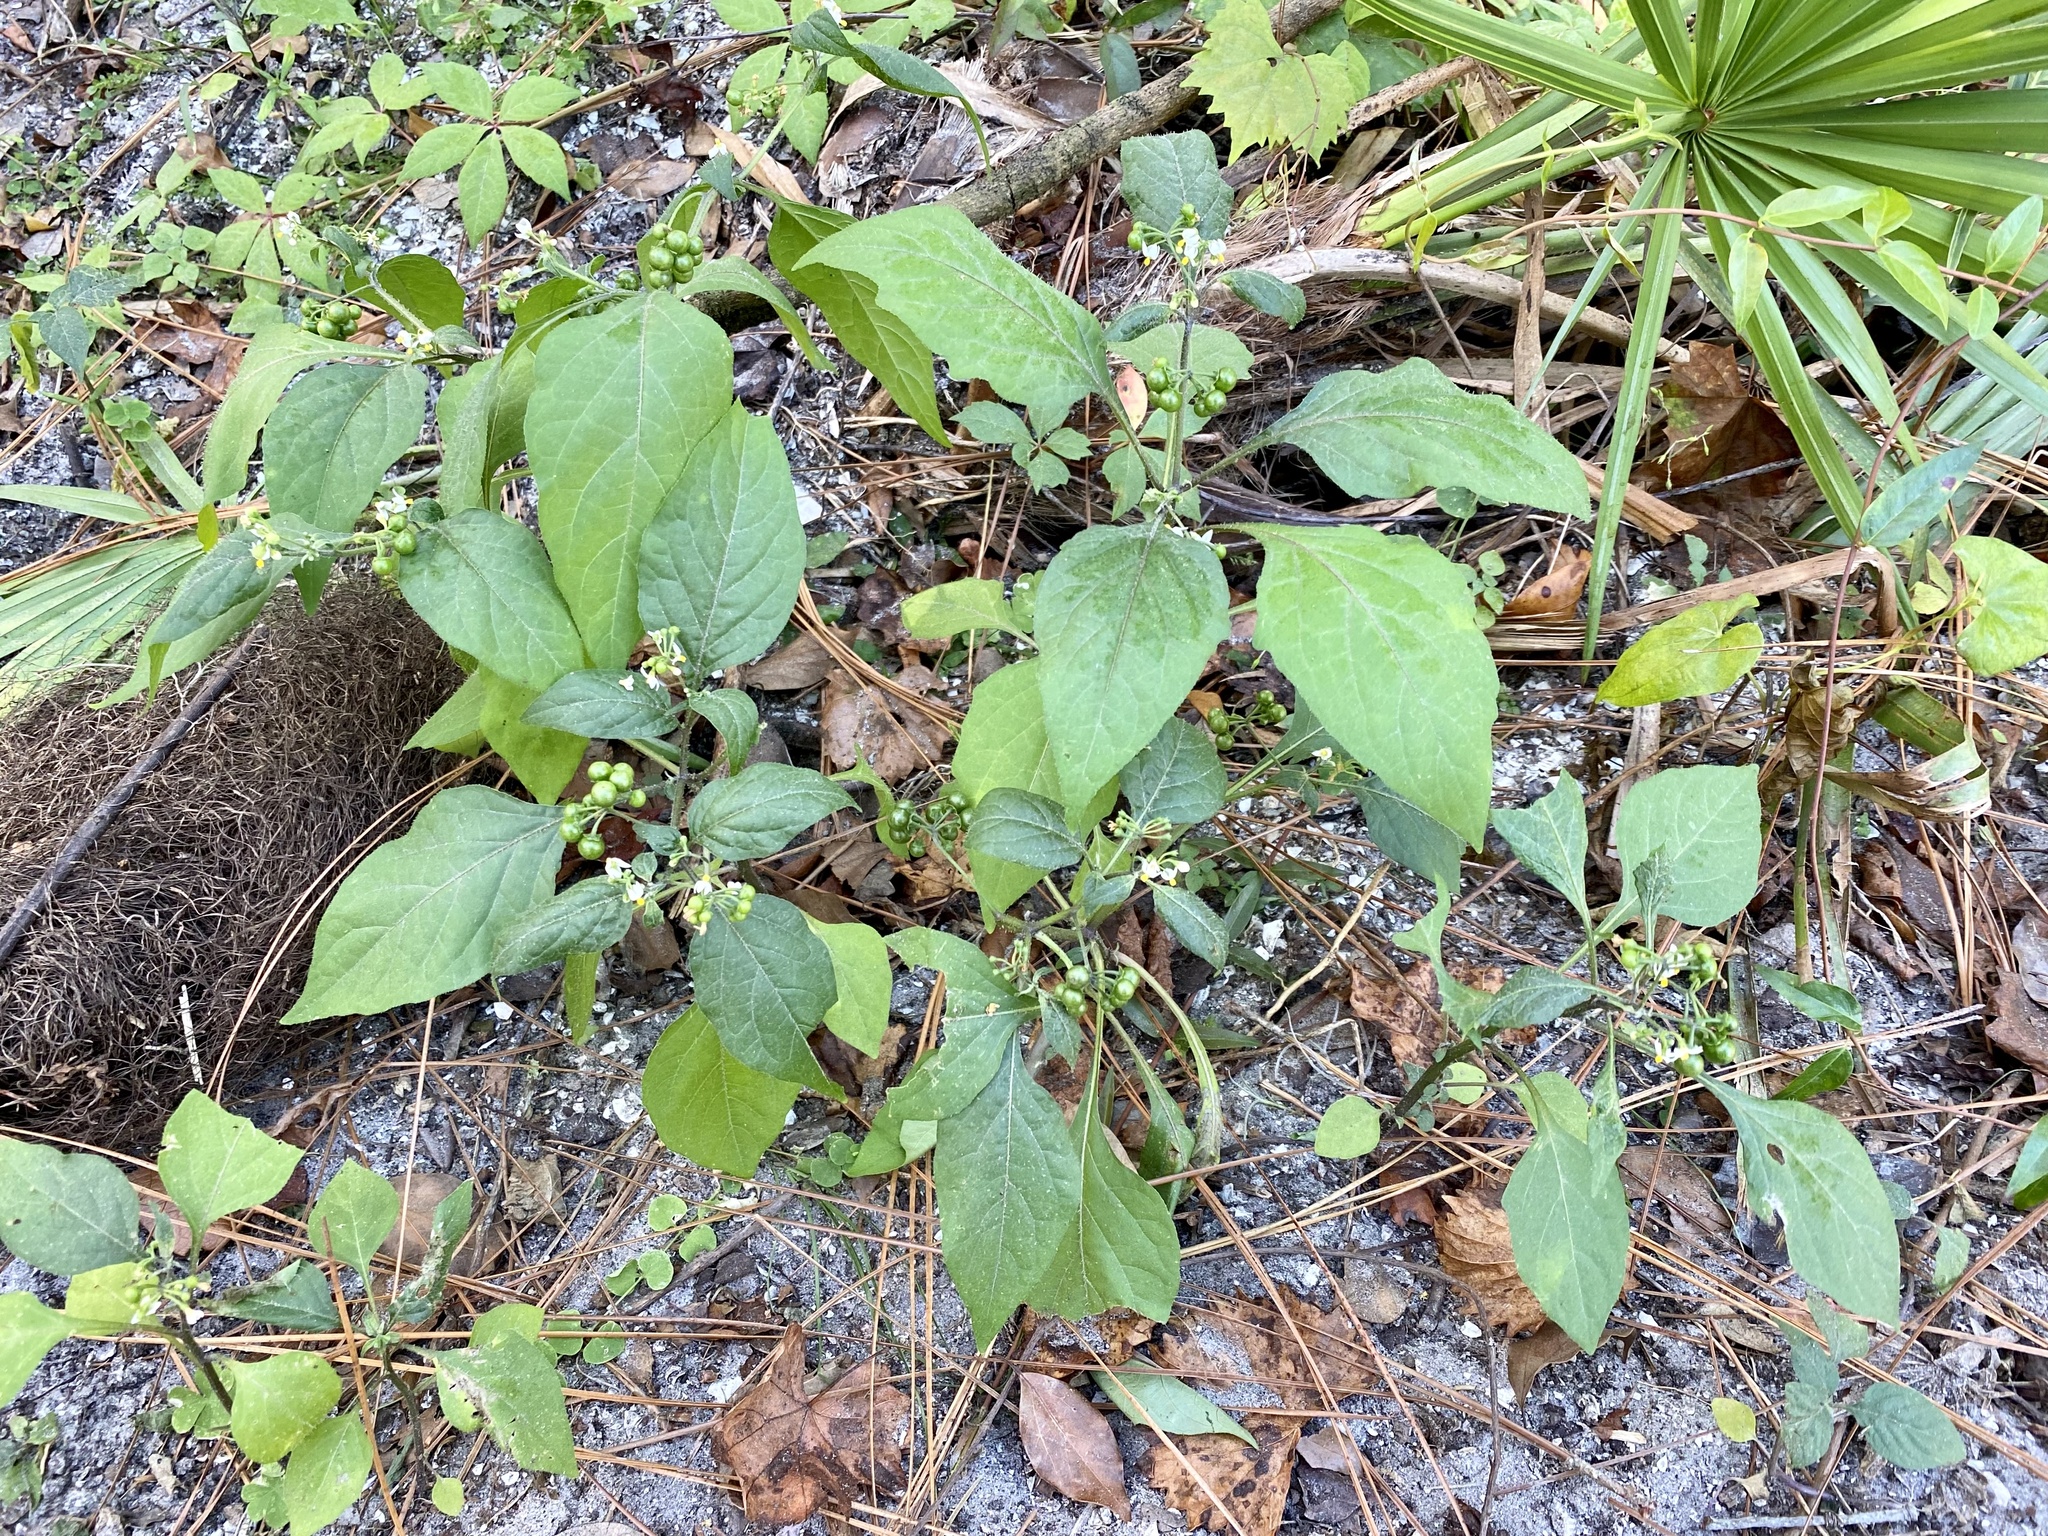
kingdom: Plantae
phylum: Tracheophyta
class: Magnoliopsida
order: Solanales
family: Solanaceae
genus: Solanum
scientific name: Solanum americanum
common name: American black nightshade
